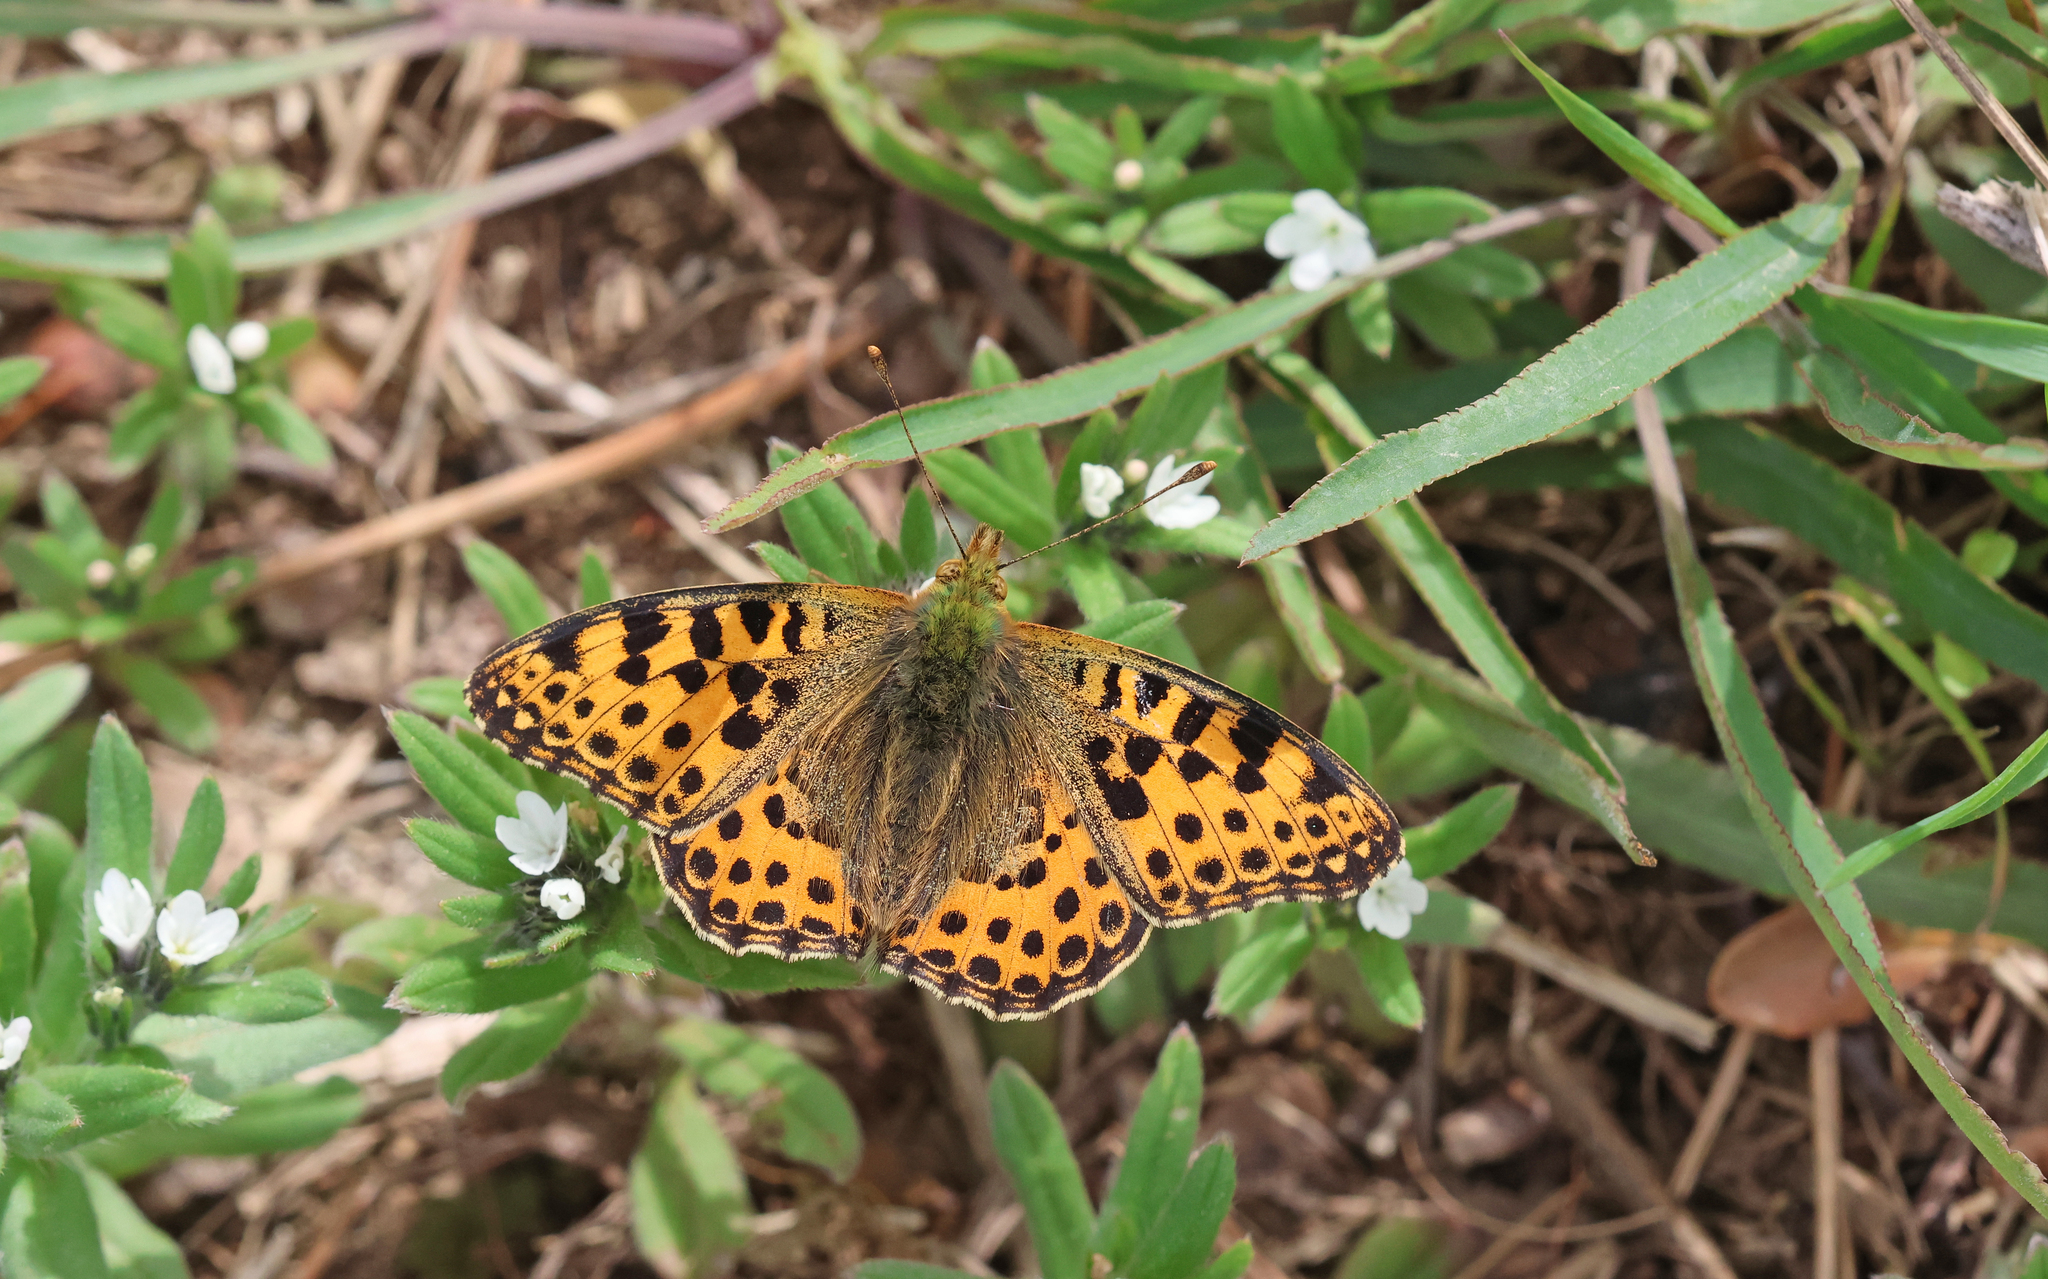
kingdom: Animalia
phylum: Arthropoda
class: Insecta
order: Lepidoptera
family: Nymphalidae
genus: Issoria
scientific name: Issoria lathonia
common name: Queen of spain fritillary
